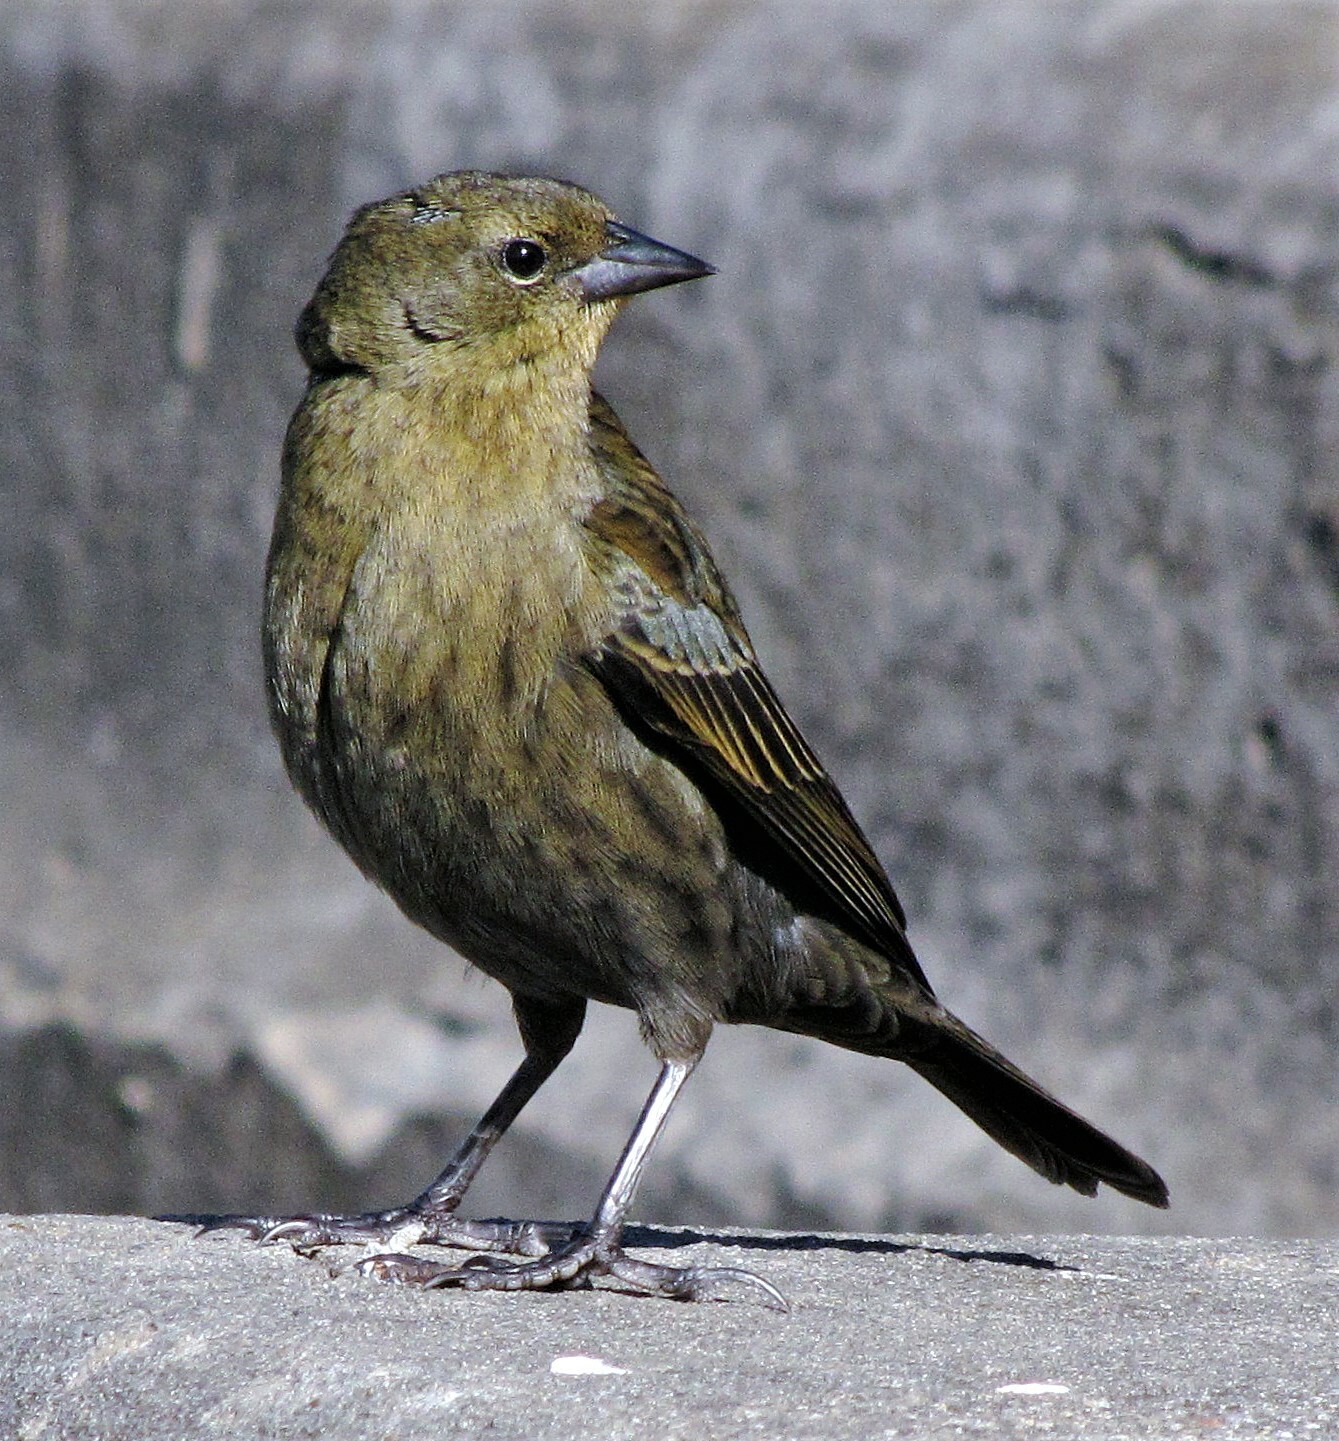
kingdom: Animalia
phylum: Chordata
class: Aves
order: Passeriformes
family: Icteridae
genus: Chrysomus
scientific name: Chrysomus ruficapillus
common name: Chestnut-capped blackbird
